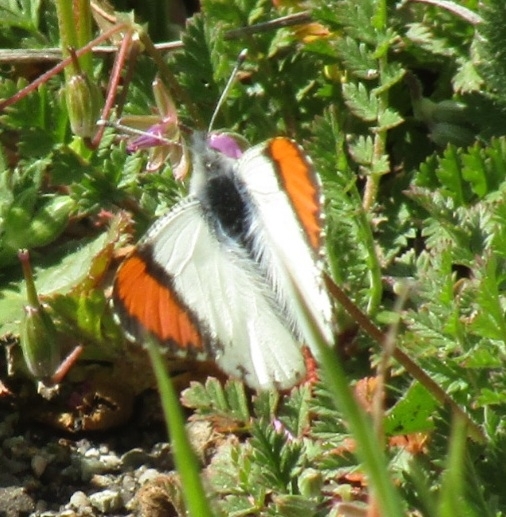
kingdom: Animalia
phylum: Arthropoda
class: Insecta
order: Lepidoptera
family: Pieridae
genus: Anthocharis
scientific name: Anthocharis sara
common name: Sara's orangetip
